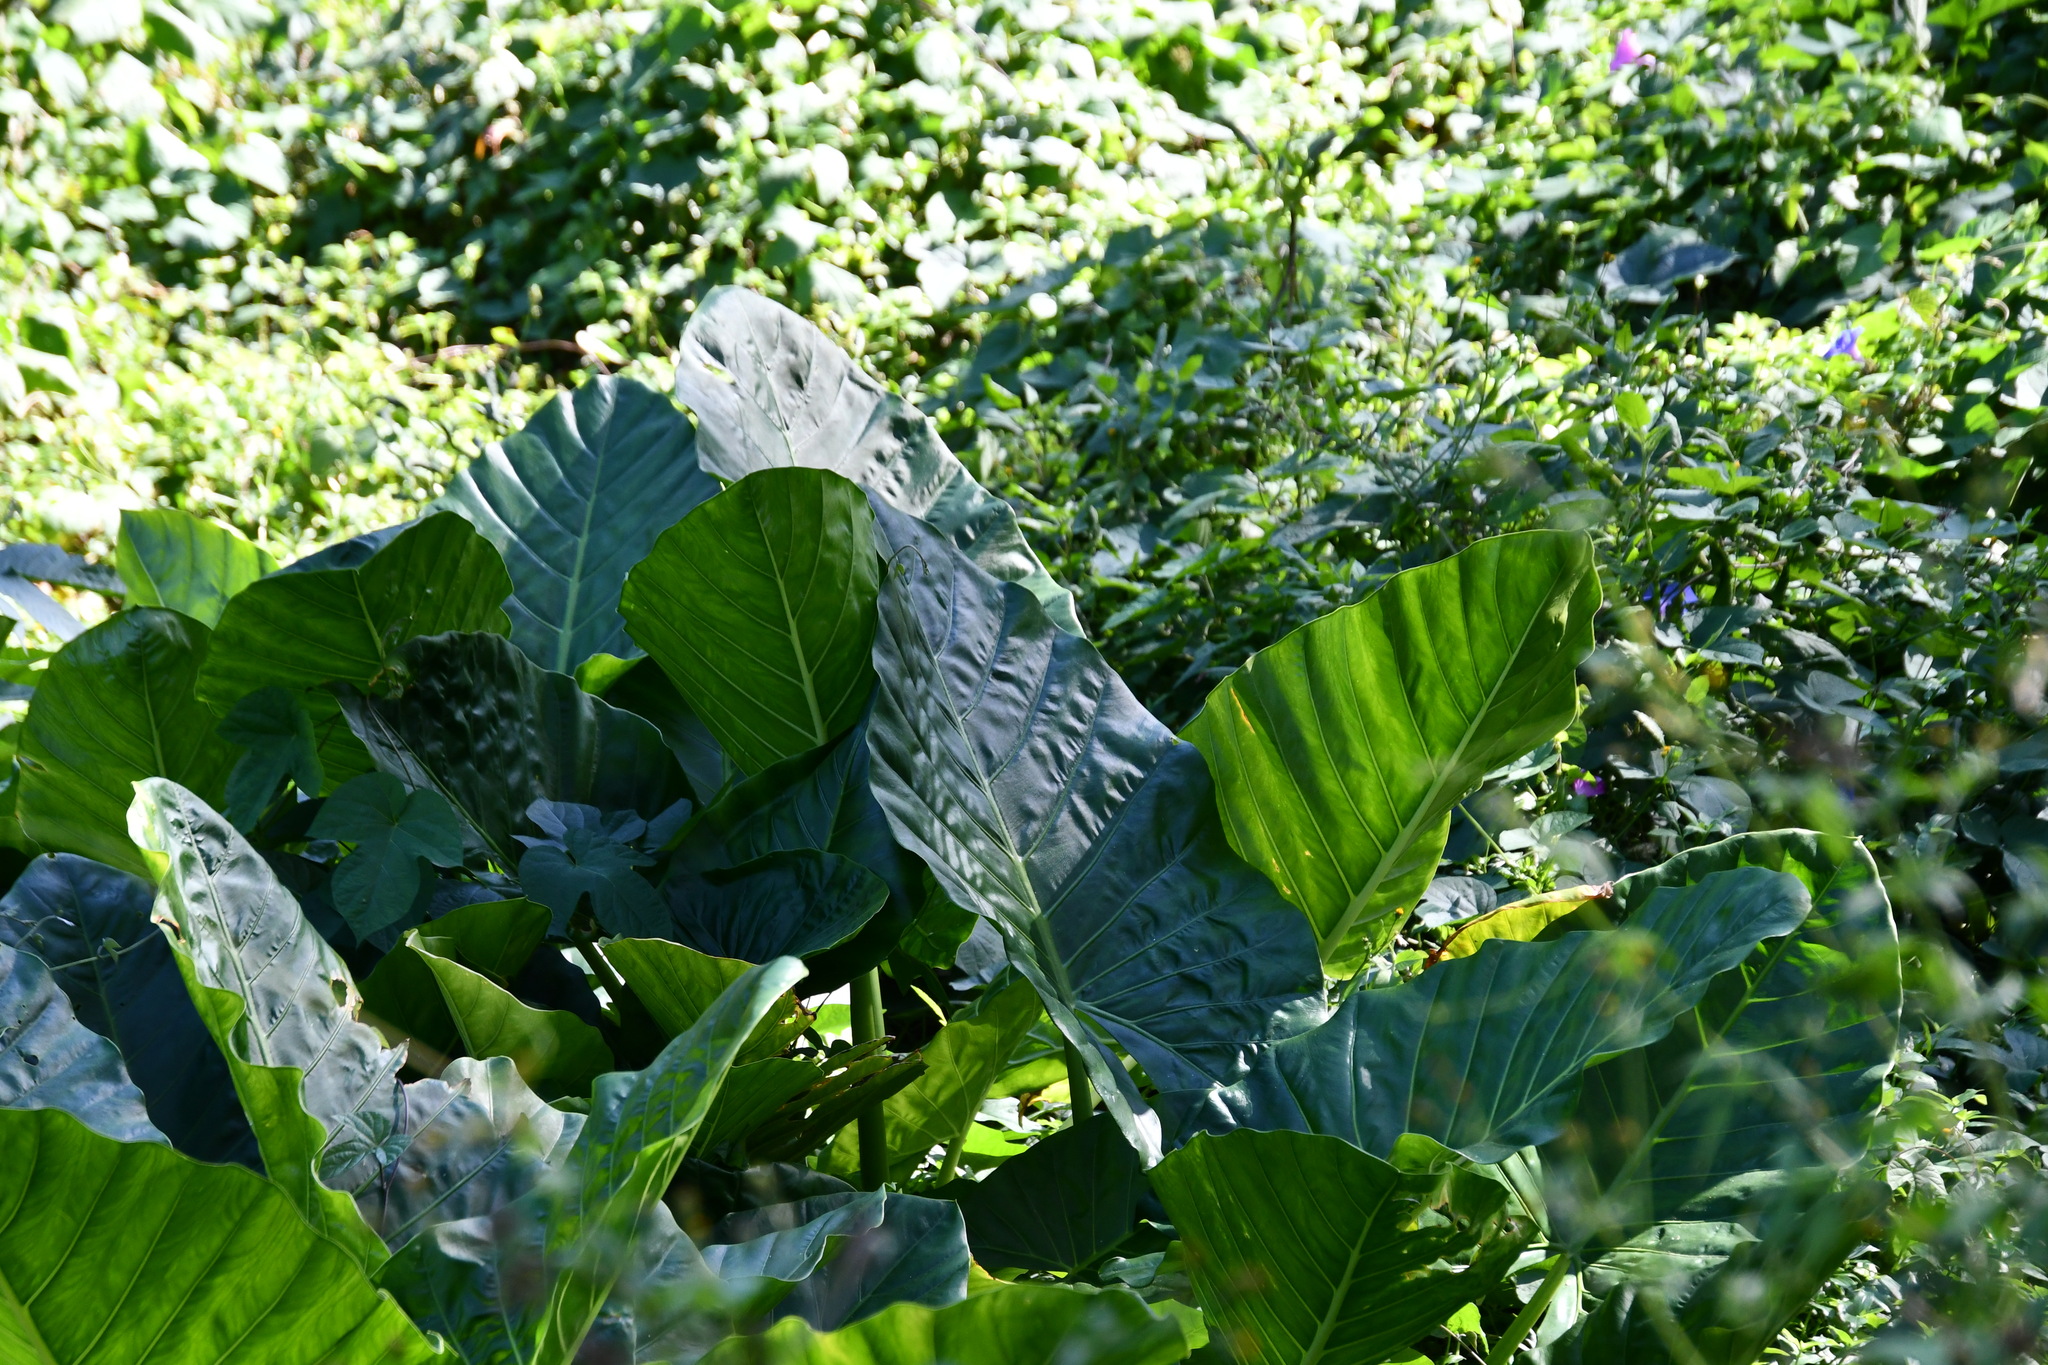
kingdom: Plantae
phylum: Tracheophyta
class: Liliopsida
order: Alismatales
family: Araceae
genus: Alocasia
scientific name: Alocasia brisbanensis
